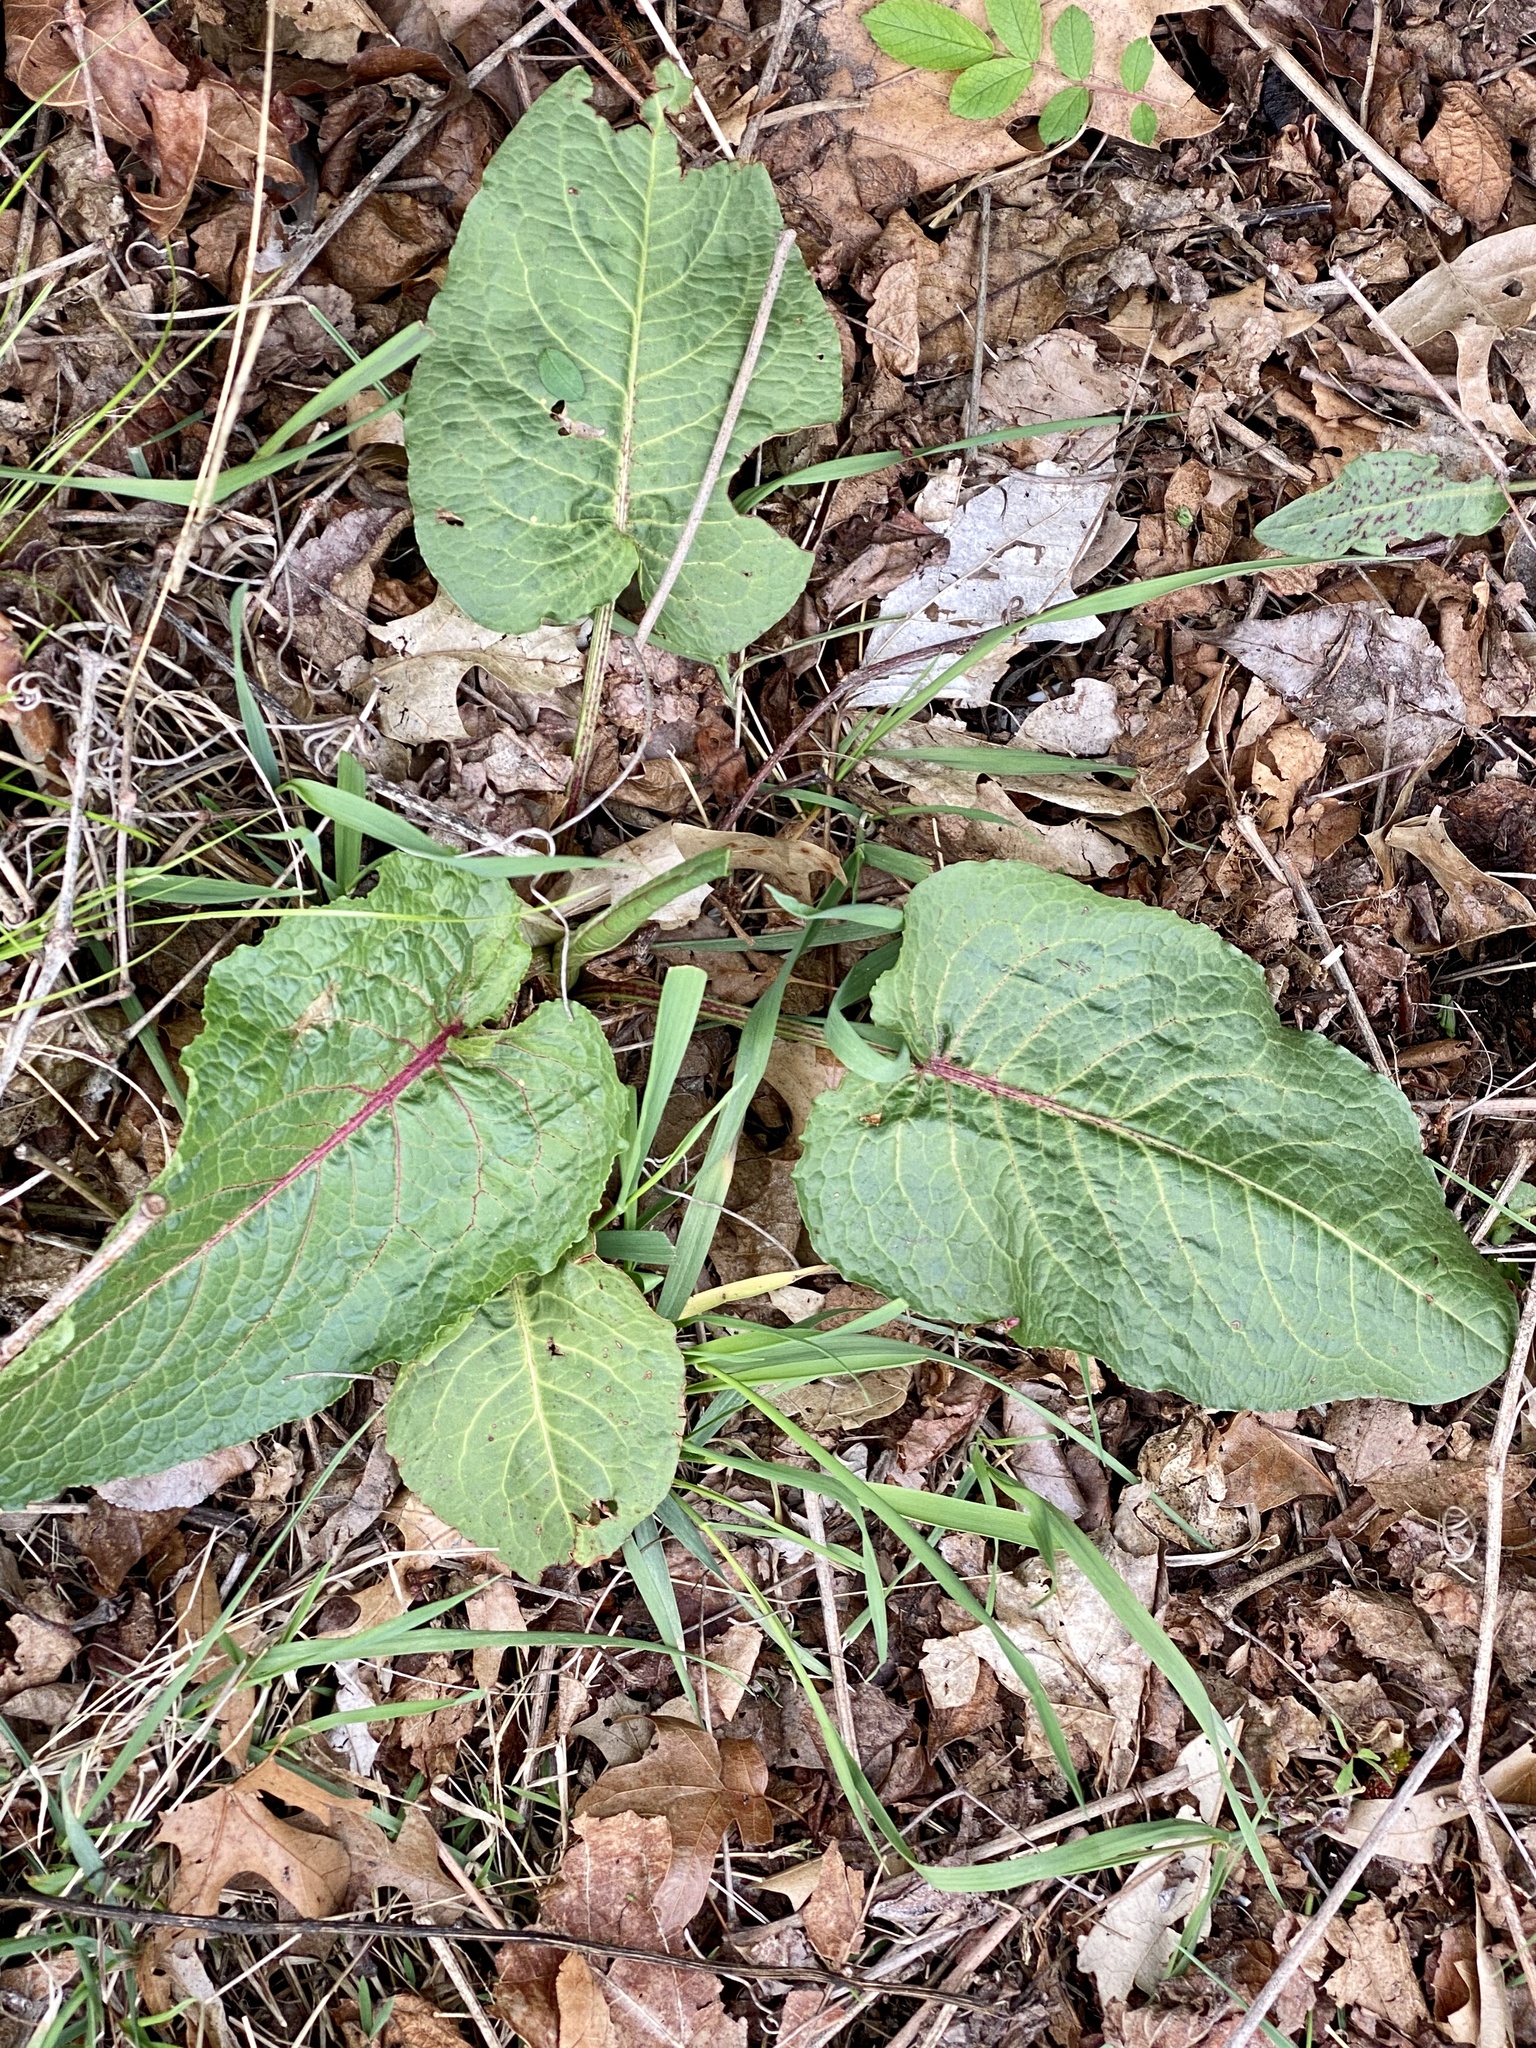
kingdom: Plantae
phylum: Tracheophyta
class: Magnoliopsida
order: Caryophyllales
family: Polygonaceae
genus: Rumex
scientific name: Rumex obtusifolius
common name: Bitter dock
